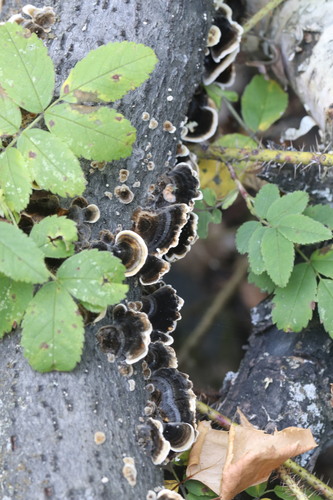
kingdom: Fungi
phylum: Basidiomycota
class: Agaricomycetes
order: Polyporales
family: Polyporaceae
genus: Trametes
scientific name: Trametes versicolor
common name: Turkeytail
